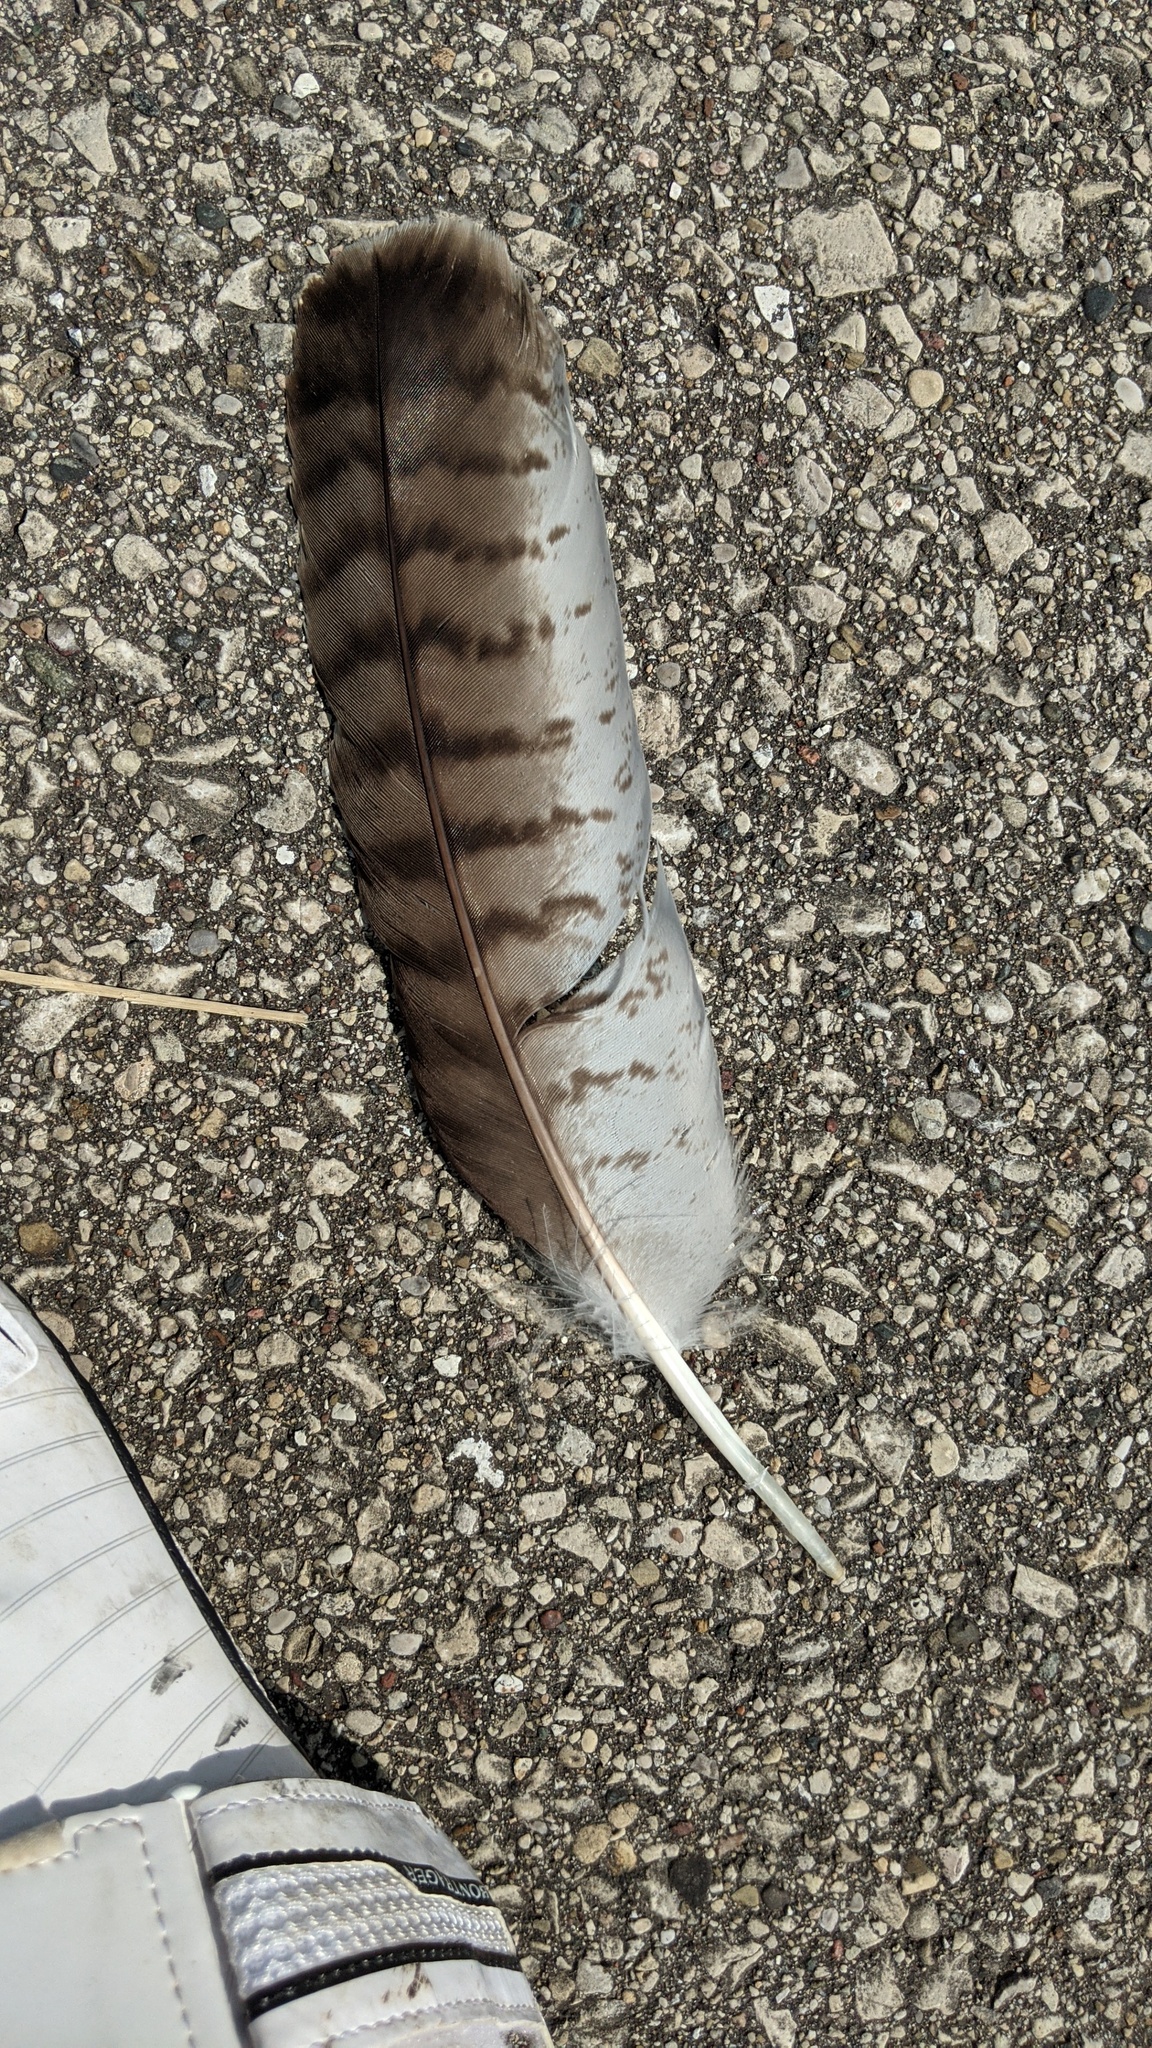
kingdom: Animalia
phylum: Chordata
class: Aves
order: Accipitriformes
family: Accipitridae
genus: Buteo
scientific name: Buteo jamaicensis
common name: Red-tailed hawk
